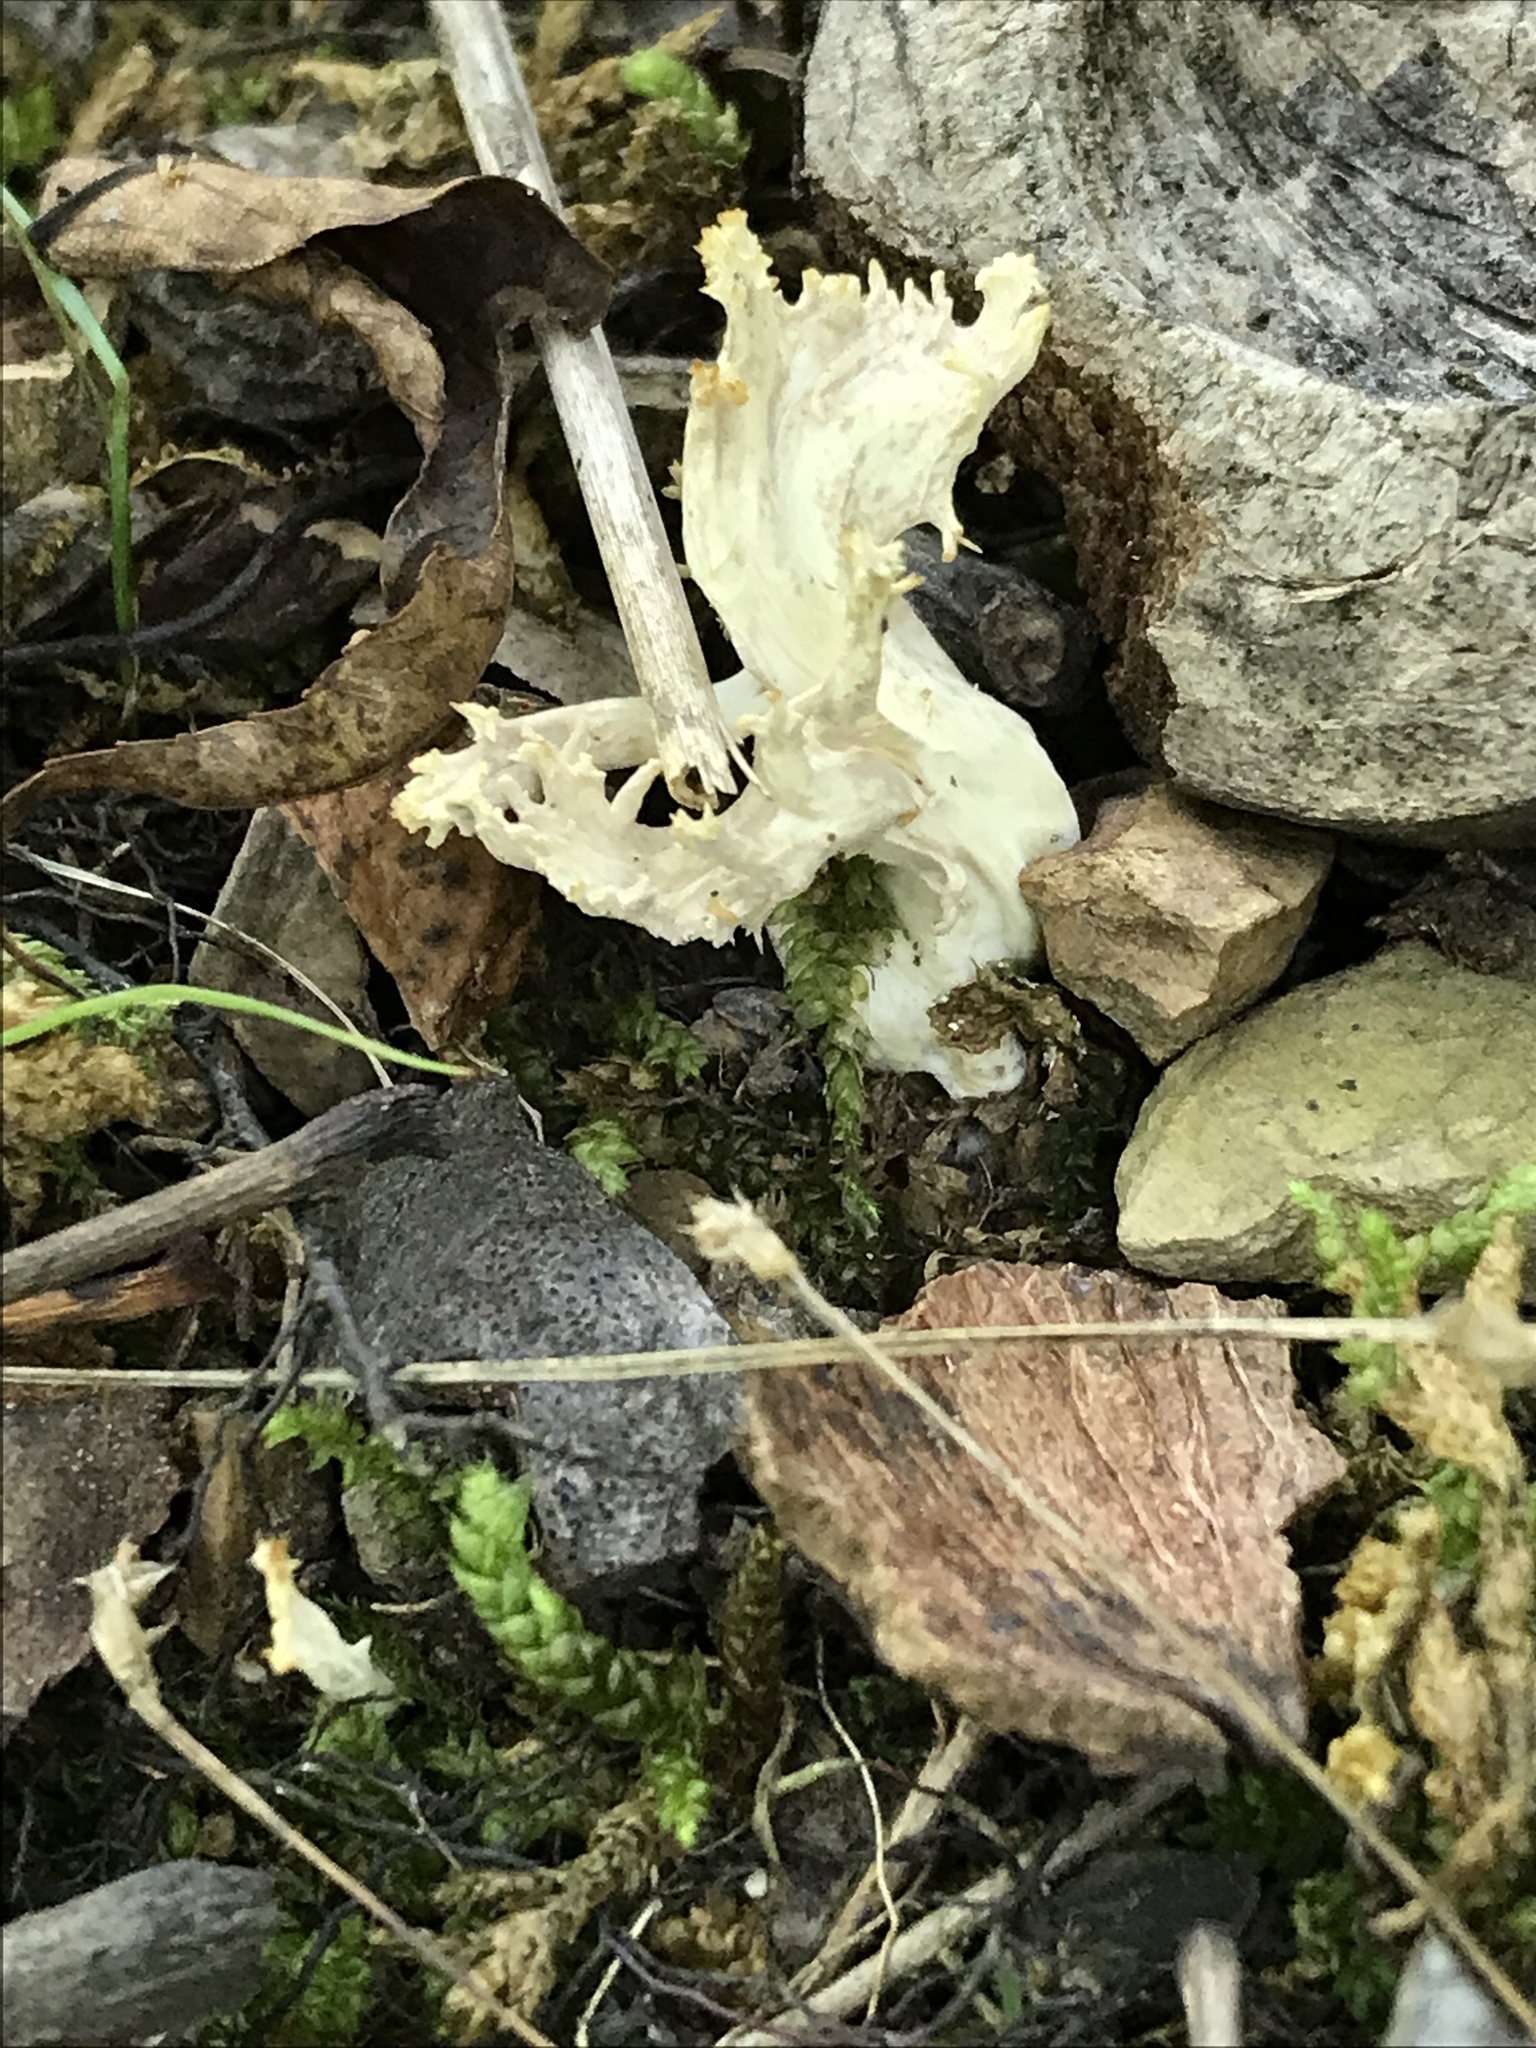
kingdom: Fungi
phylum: Basidiomycota
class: Agaricomycetes
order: Cantharellales
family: Hydnaceae
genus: Clavulina
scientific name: Clavulina cinerea
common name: Grey coral
